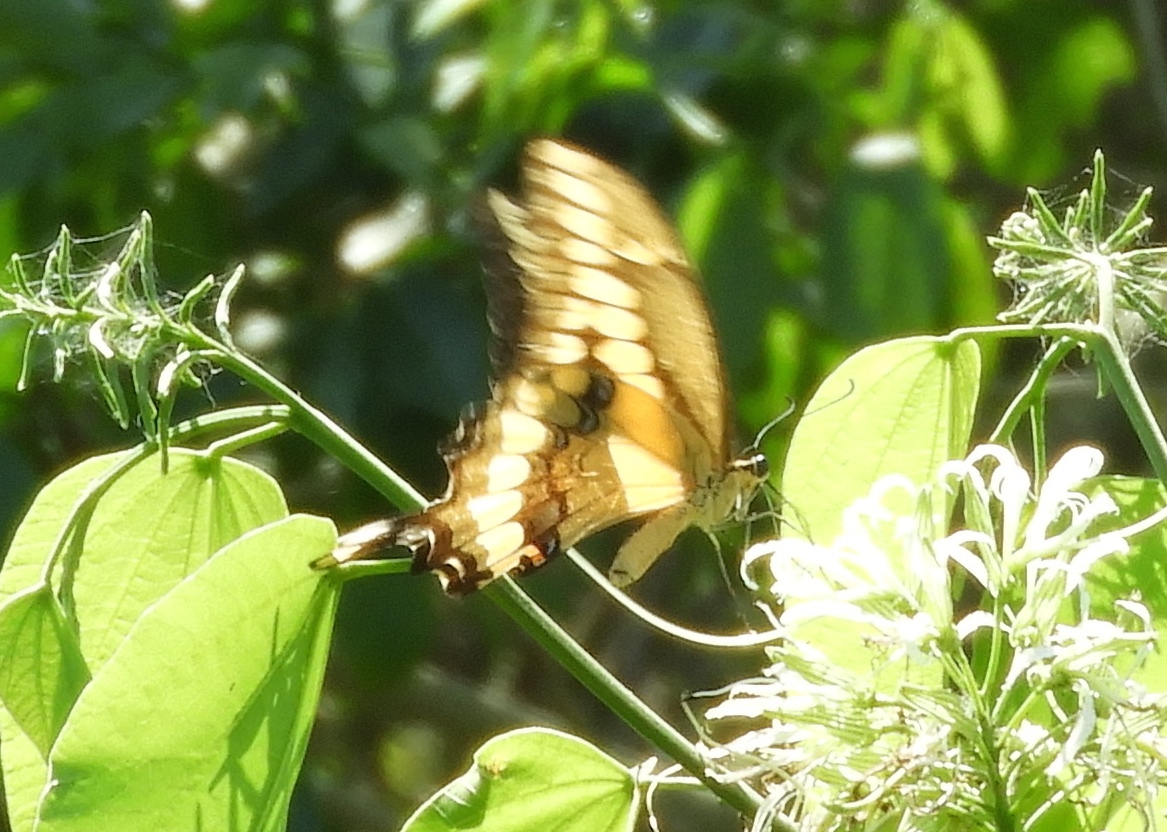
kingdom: Animalia
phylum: Arthropoda
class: Insecta
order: Lepidoptera
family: Papilionidae
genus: Papilio
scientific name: Papilio rumiko
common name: Western giant swallowtail
